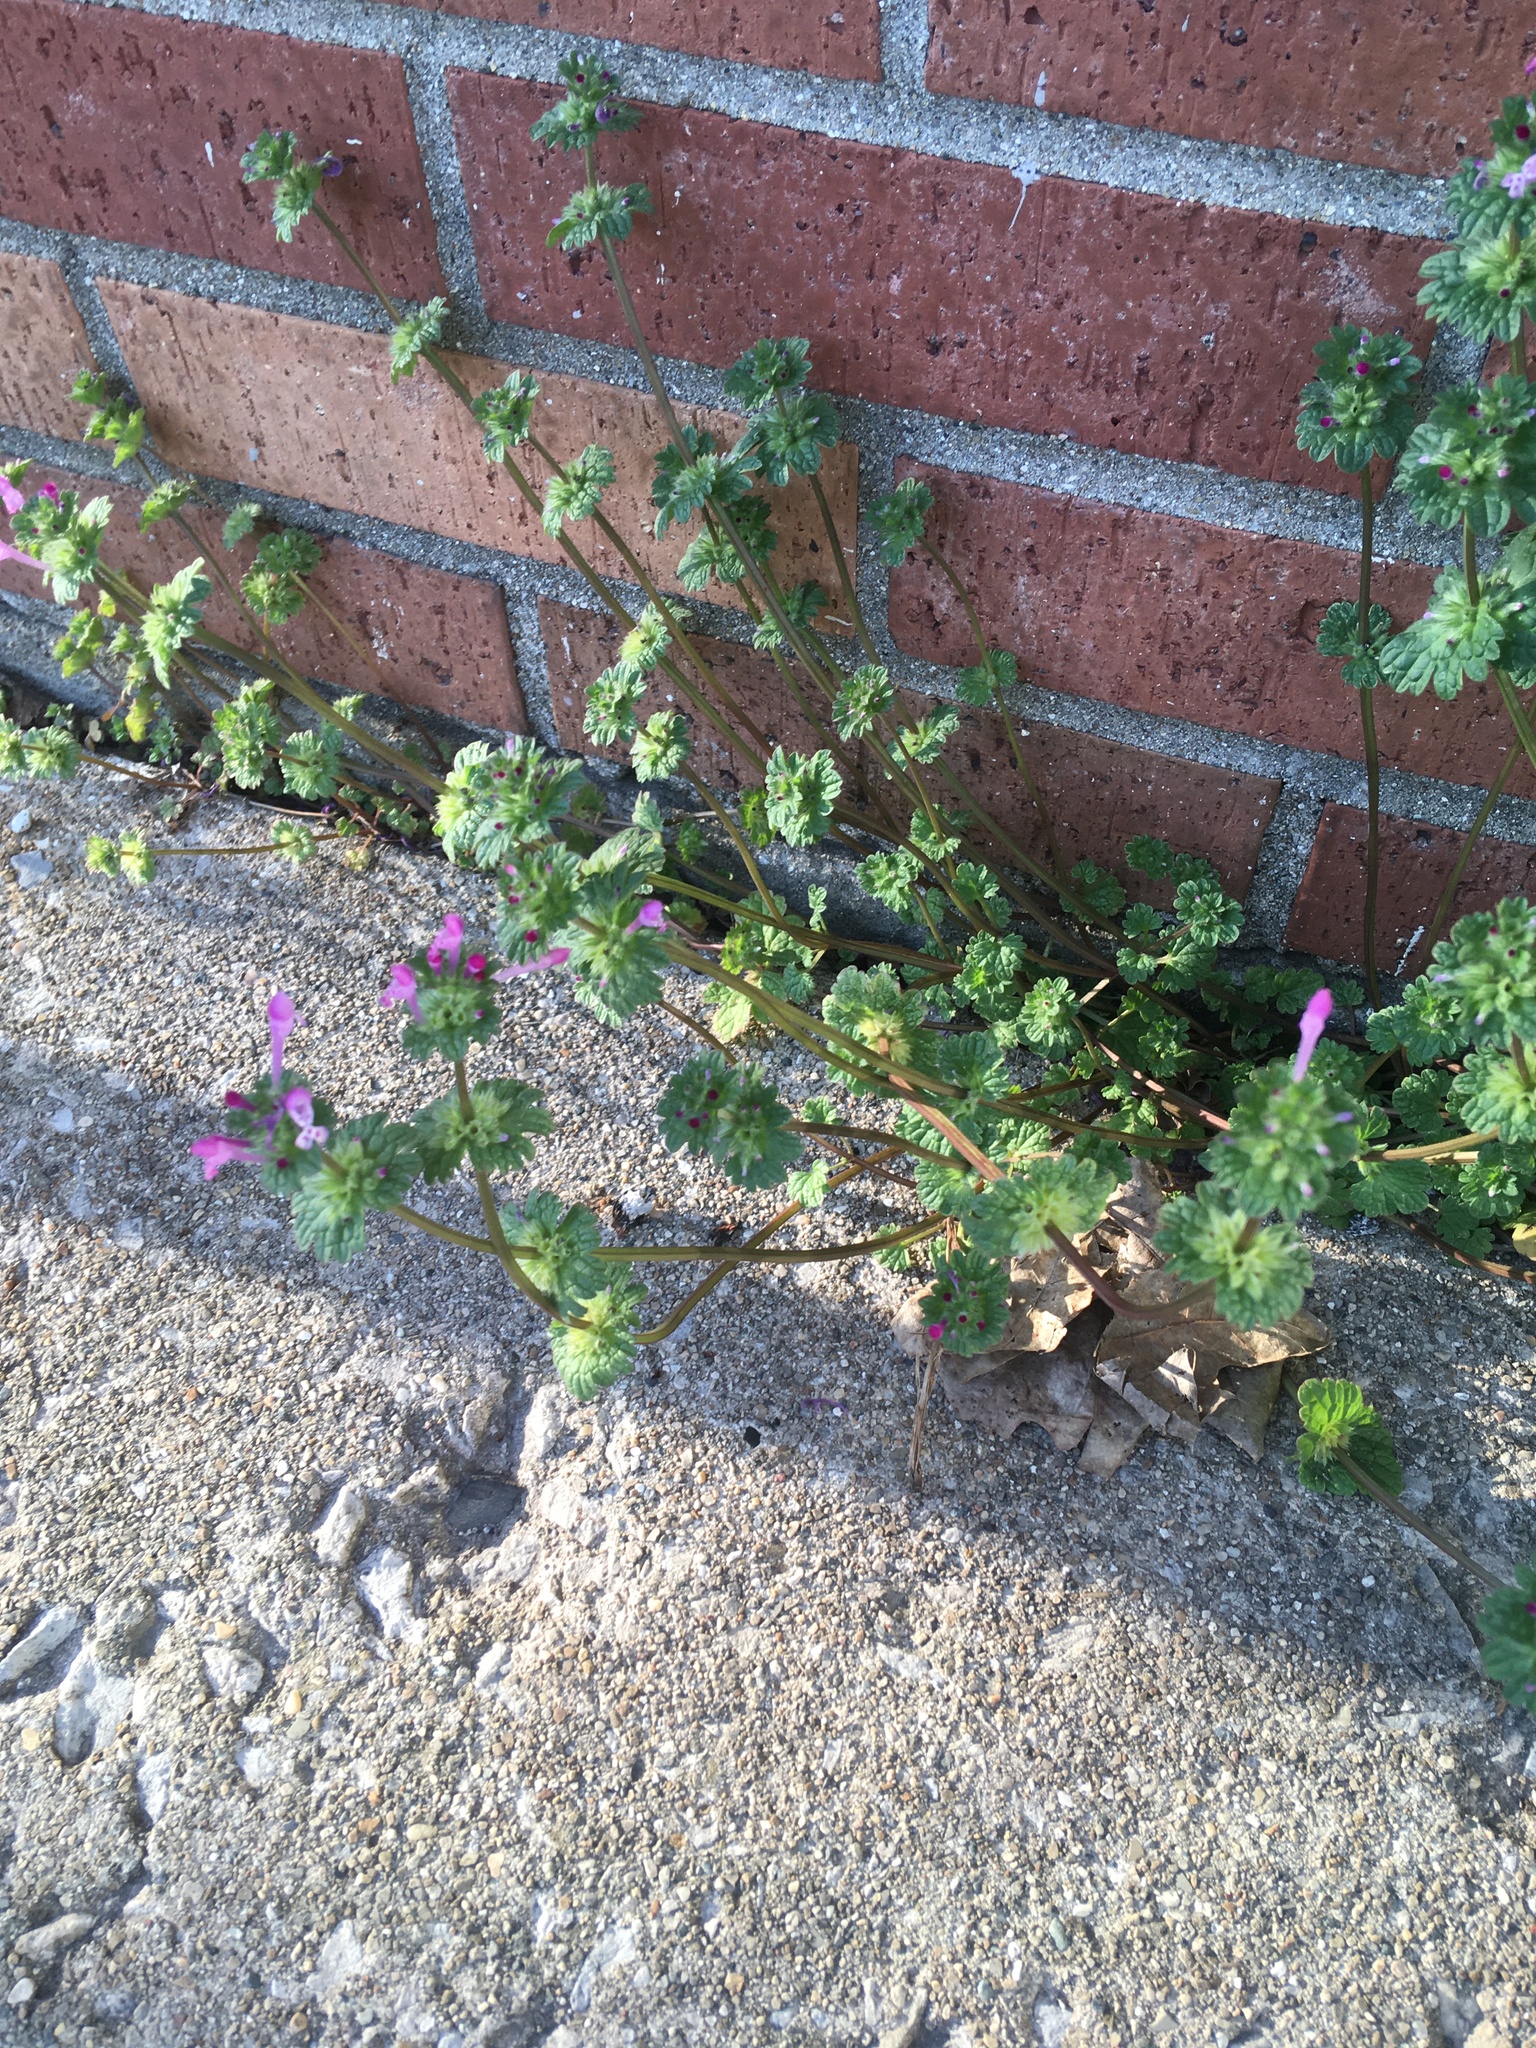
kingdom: Plantae
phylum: Tracheophyta
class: Magnoliopsida
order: Lamiales
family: Lamiaceae
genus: Lamium
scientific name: Lamium amplexicaule
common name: Henbit dead-nettle
